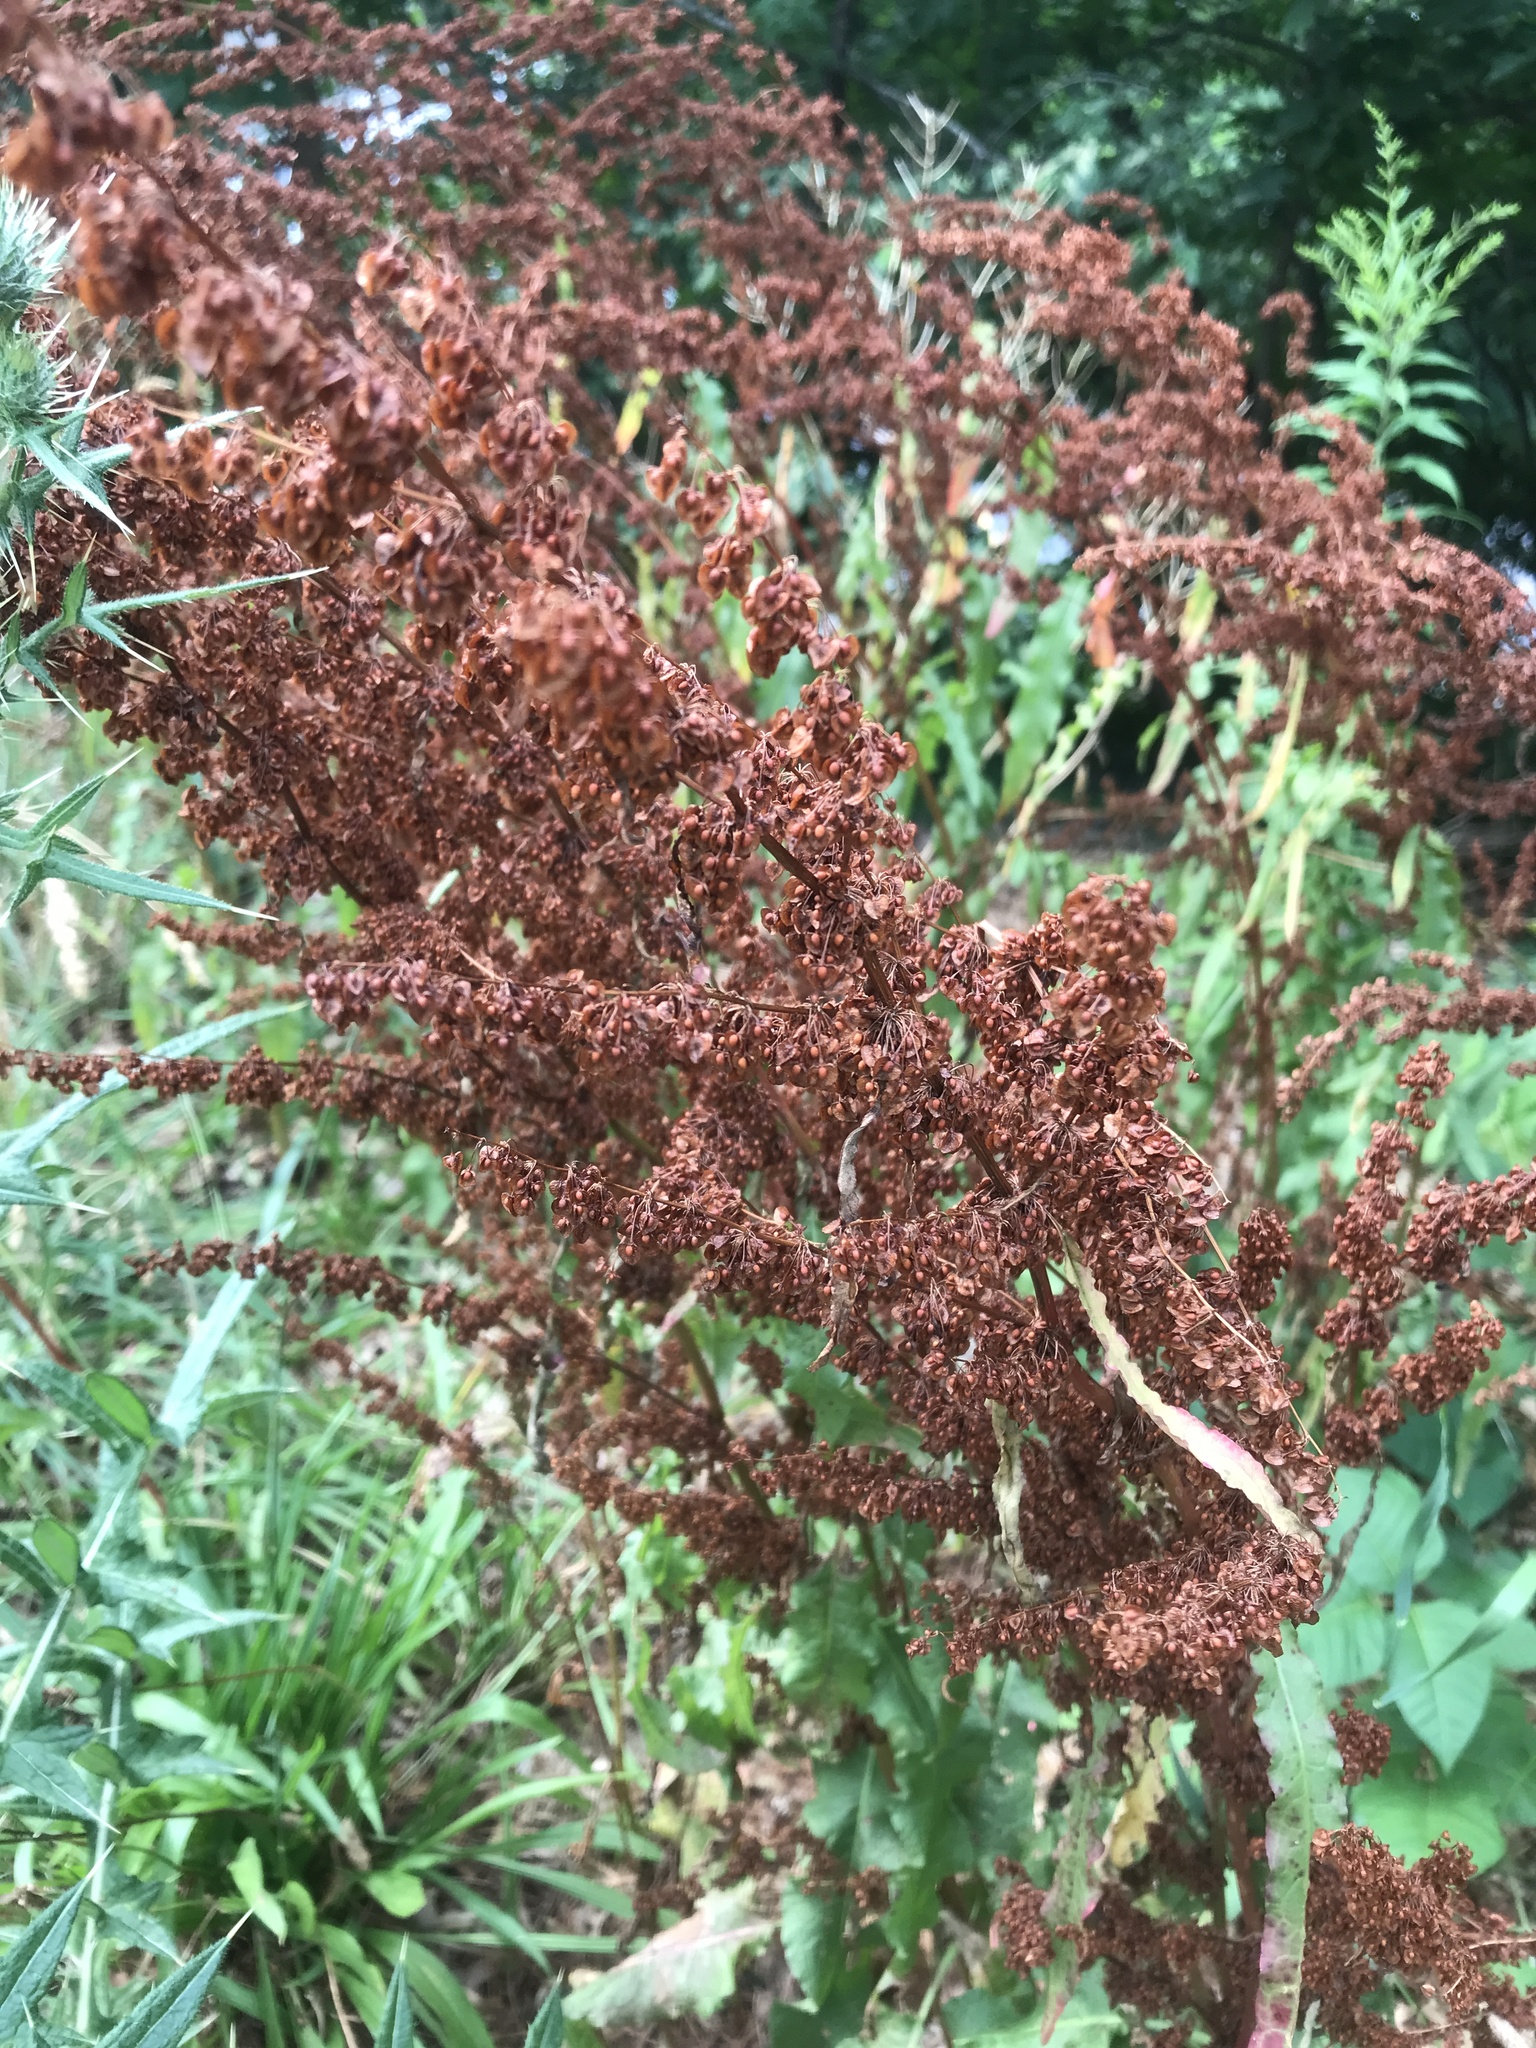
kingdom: Plantae
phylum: Tracheophyta
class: Magnoliopsida
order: Caryophyllales
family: Polygonaceae
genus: Rumex
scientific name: Rumex crispus
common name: Curled dock
